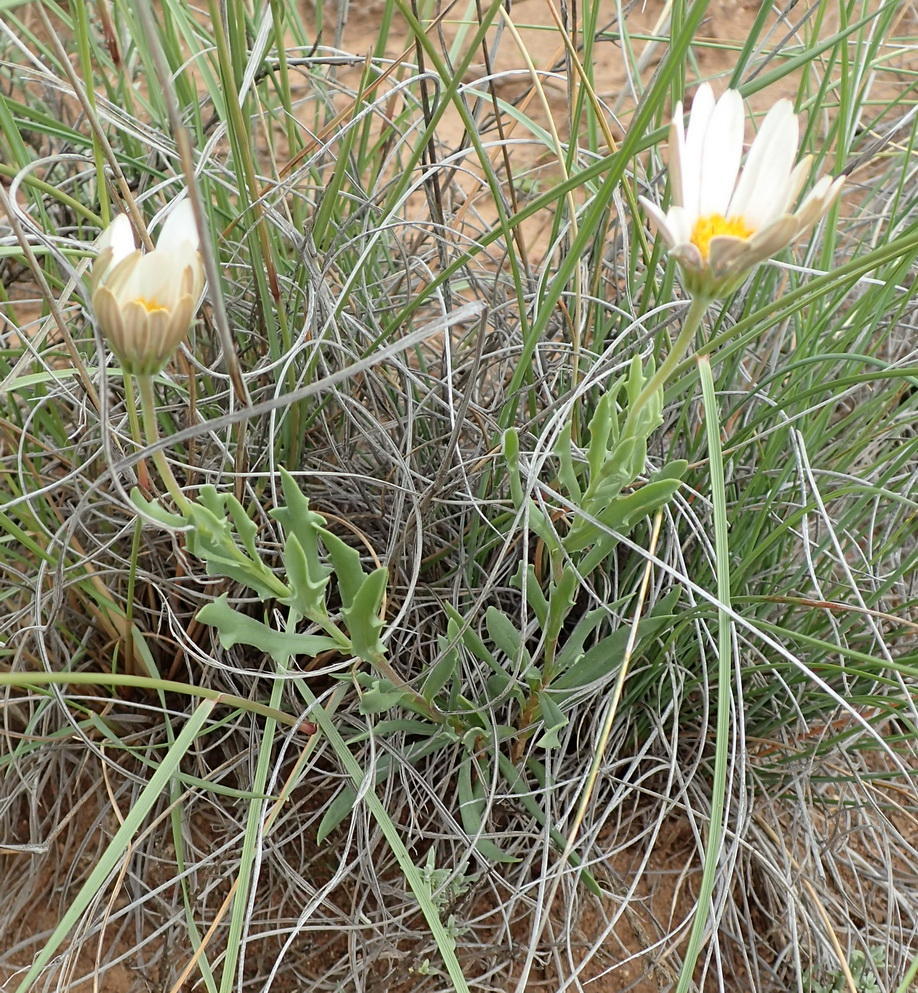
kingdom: Plantae
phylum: Tracheophyta
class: Magnoliopsida
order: Asterales
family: Asteraceae
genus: Dimorphotheca
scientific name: Dimorphotheca cuneata
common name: Daisy
